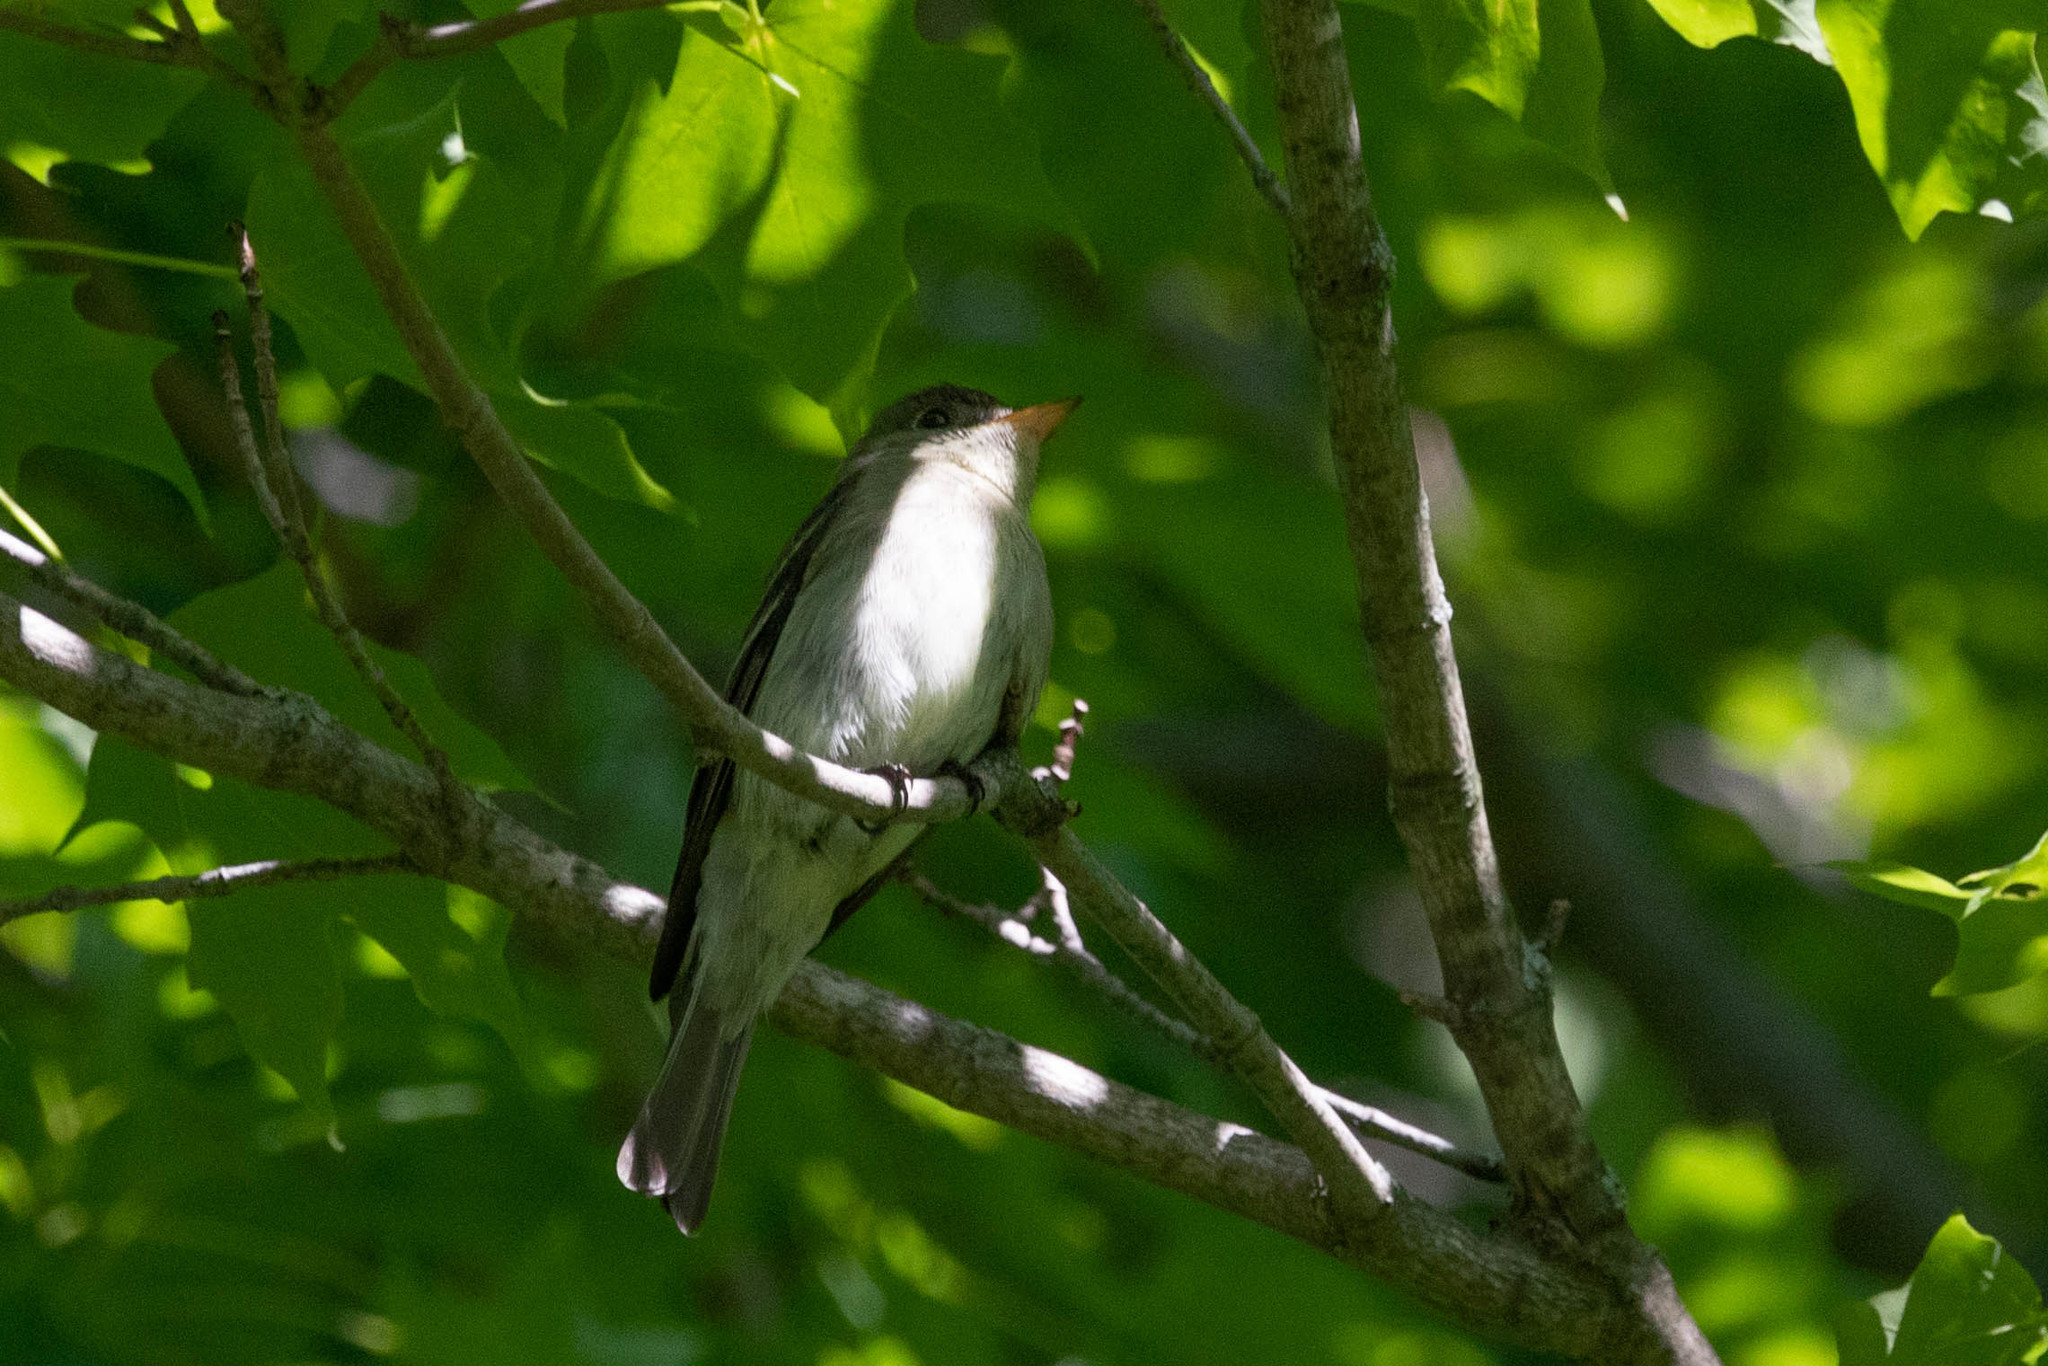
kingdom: Animalia
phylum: Chordata
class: Aves
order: Passeriformes
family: Tyrannidae
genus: Contopus
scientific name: Contopus virens
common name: Eastern wood-pewee
